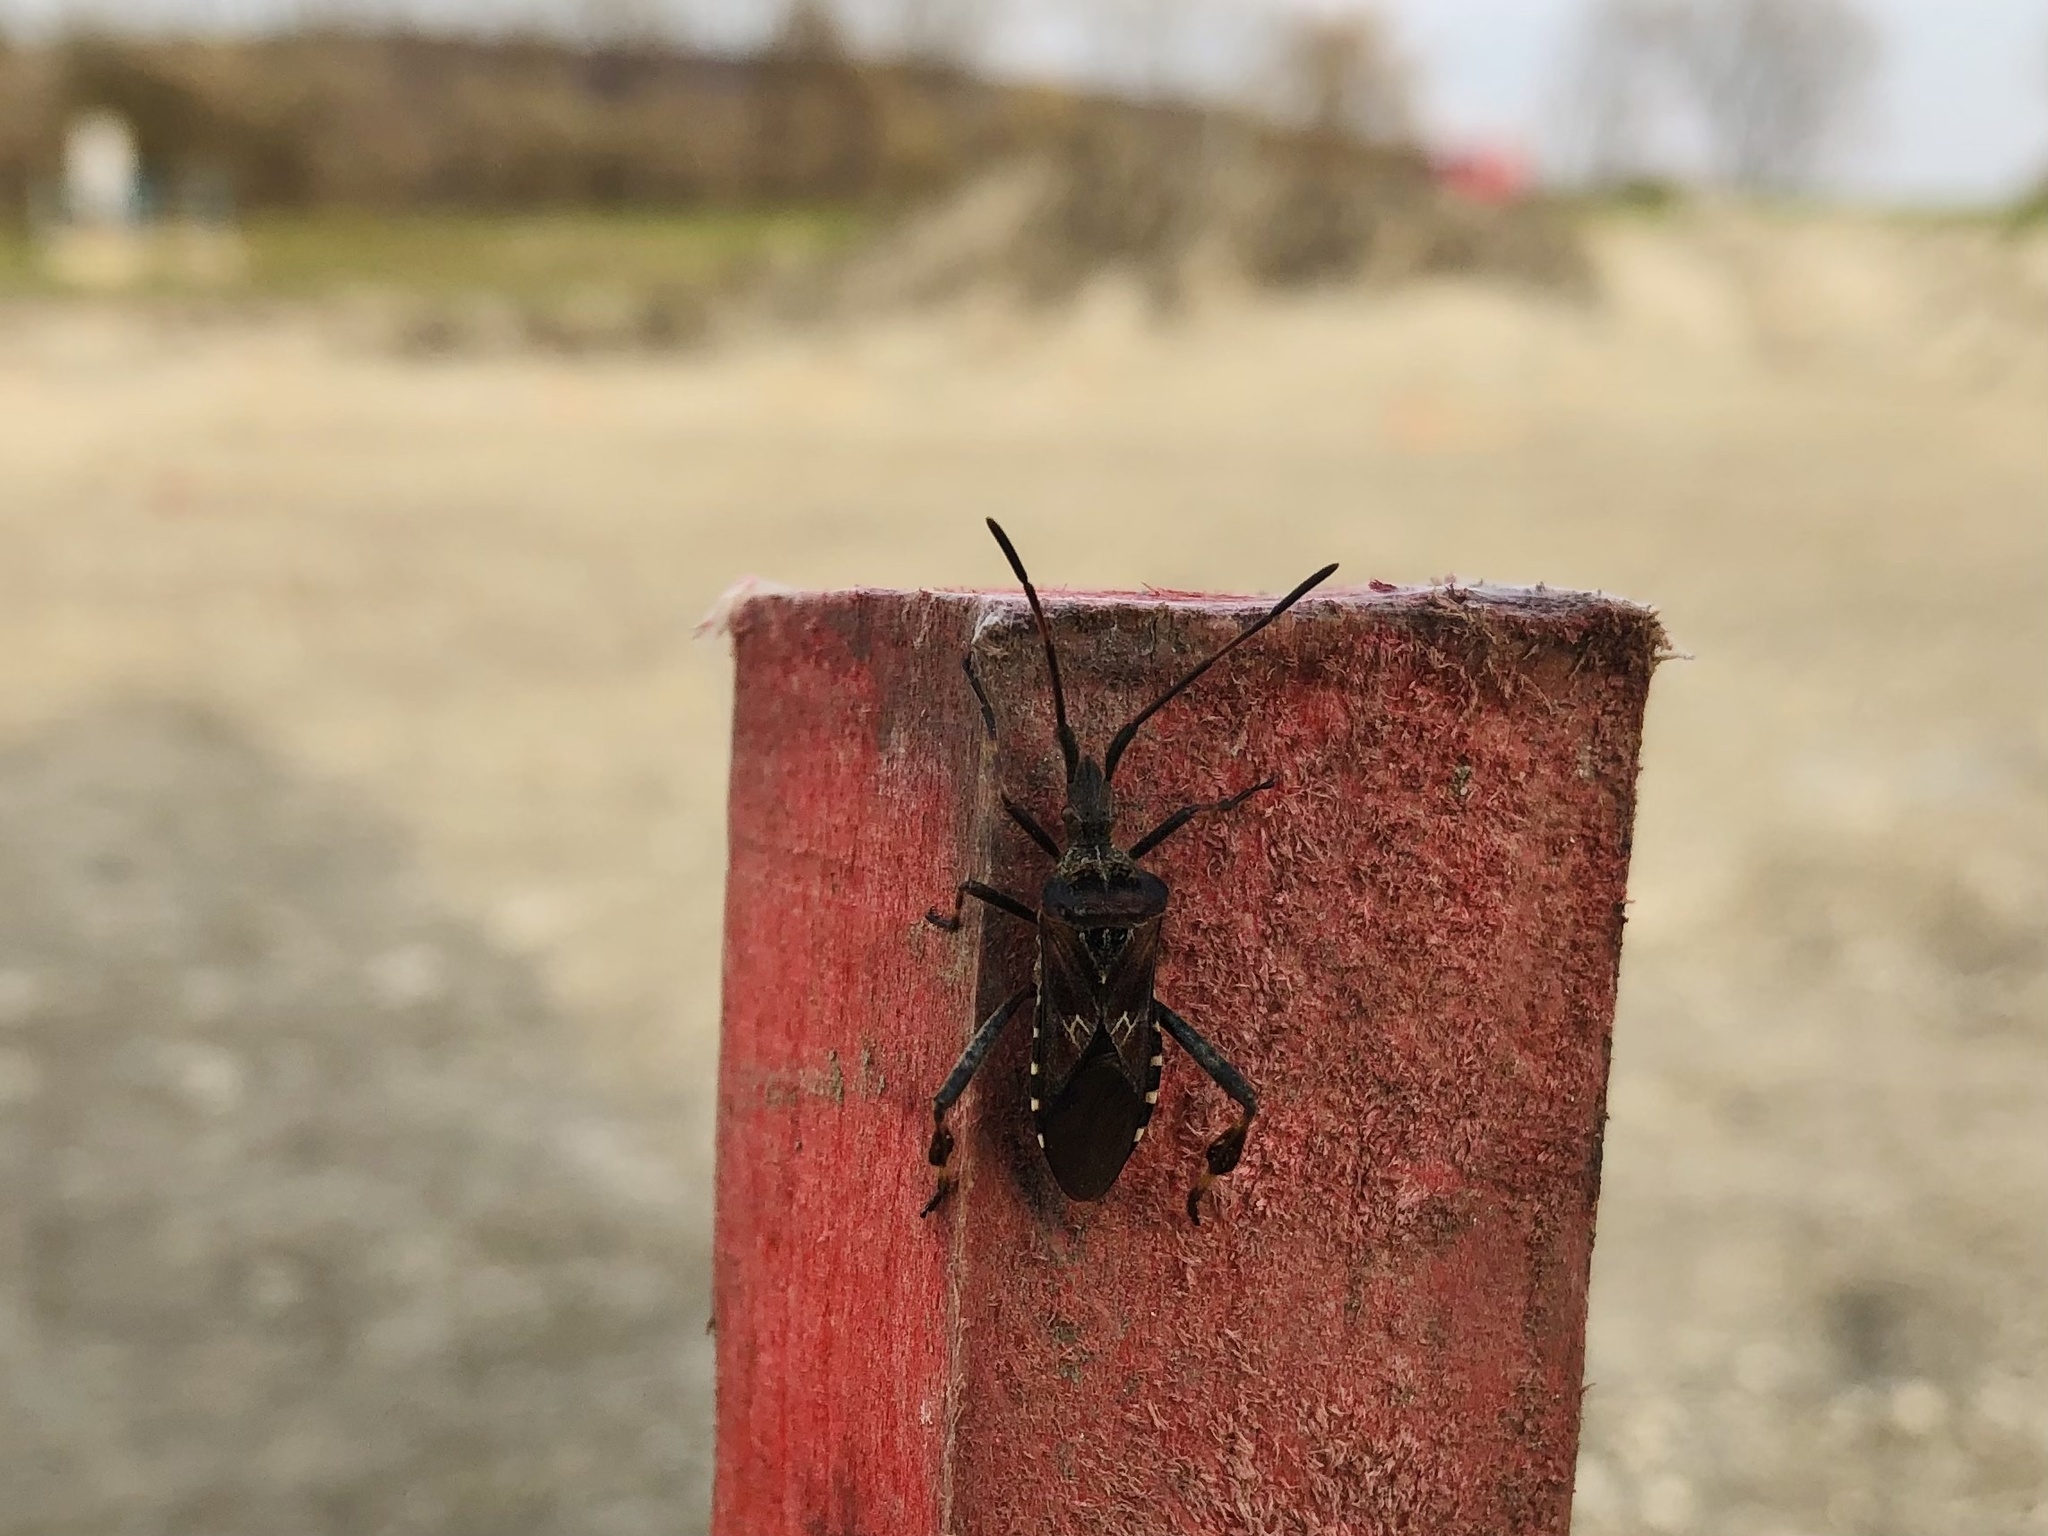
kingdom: Animalia
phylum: Arthropoda
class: Insecta
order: Hemiptera
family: Coreidae
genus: Leptoglossus
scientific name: Leptoglossus occidentalis
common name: Western conifer-seed bug
